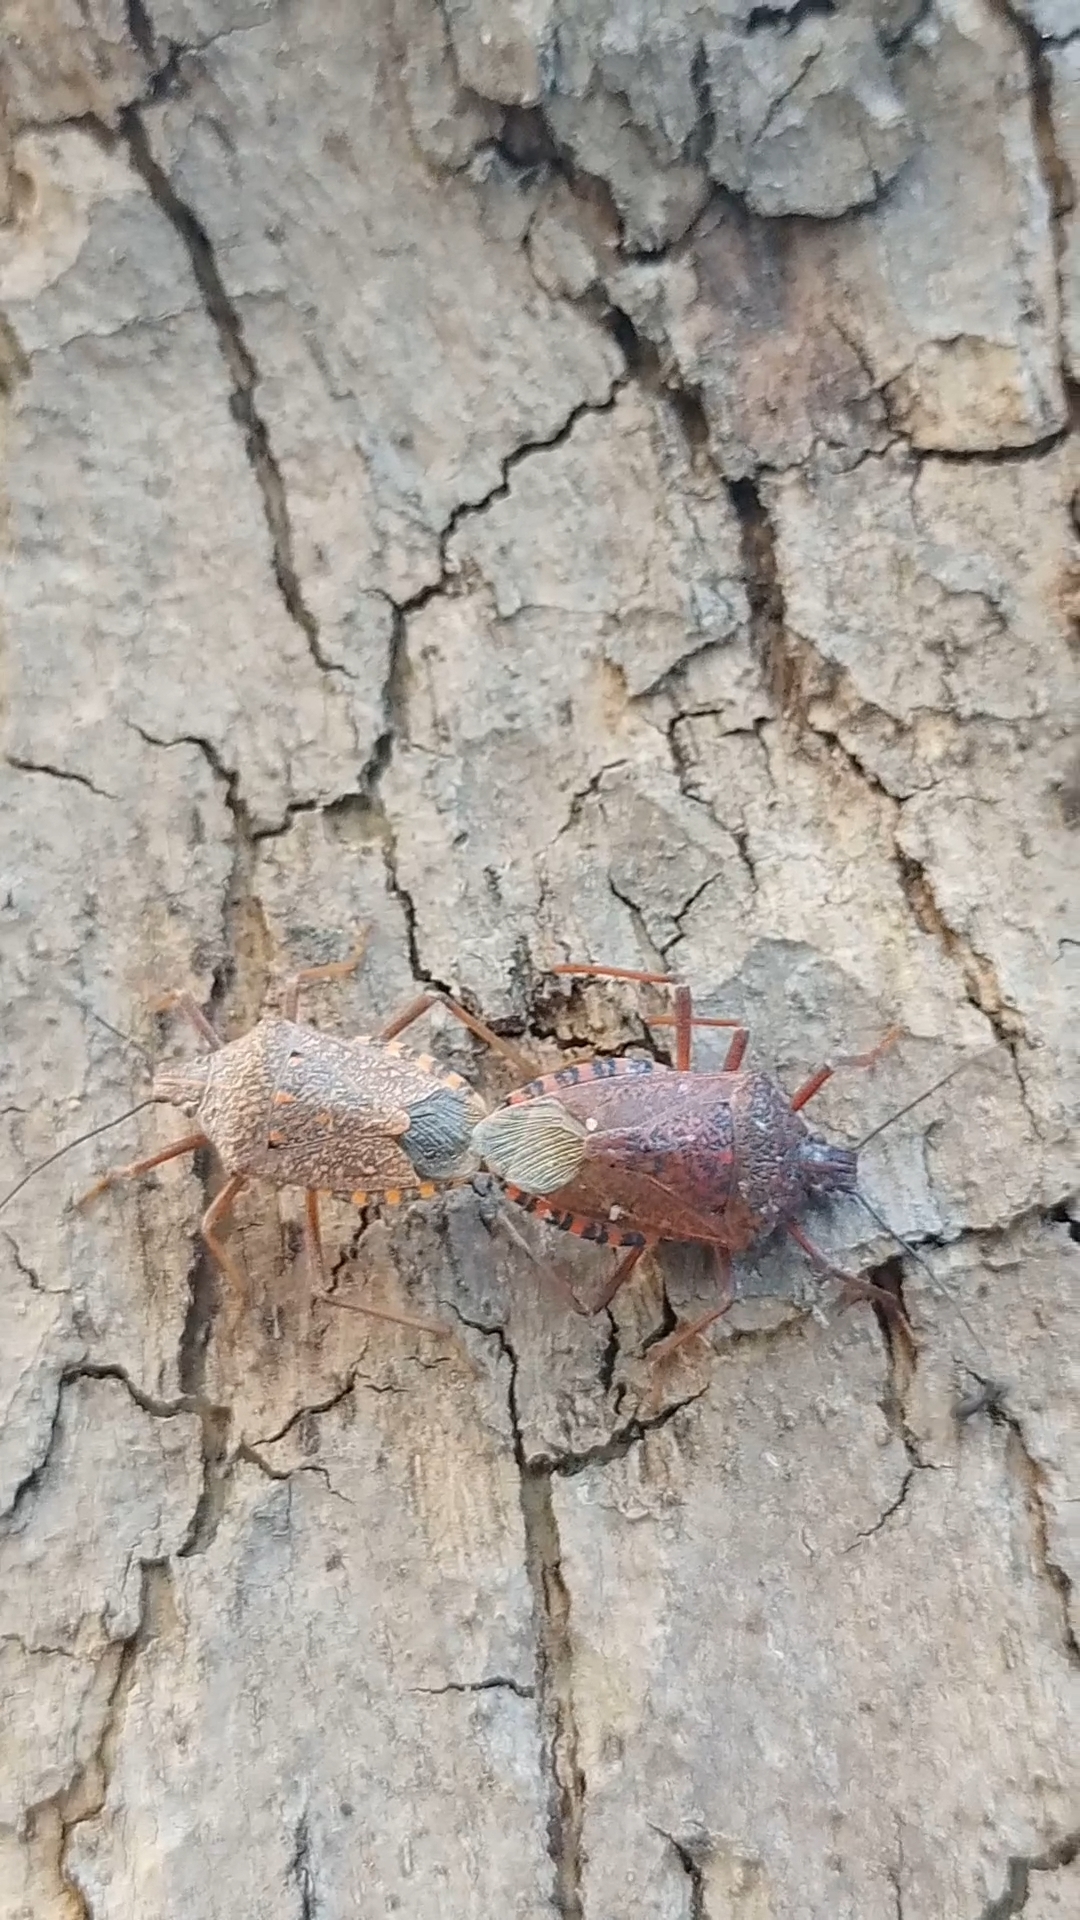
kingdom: Animalia
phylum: Arthropoda
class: Insecta
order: Hemiptera
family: Pentatomidae
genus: Apodiphus
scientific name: Apodiphus
